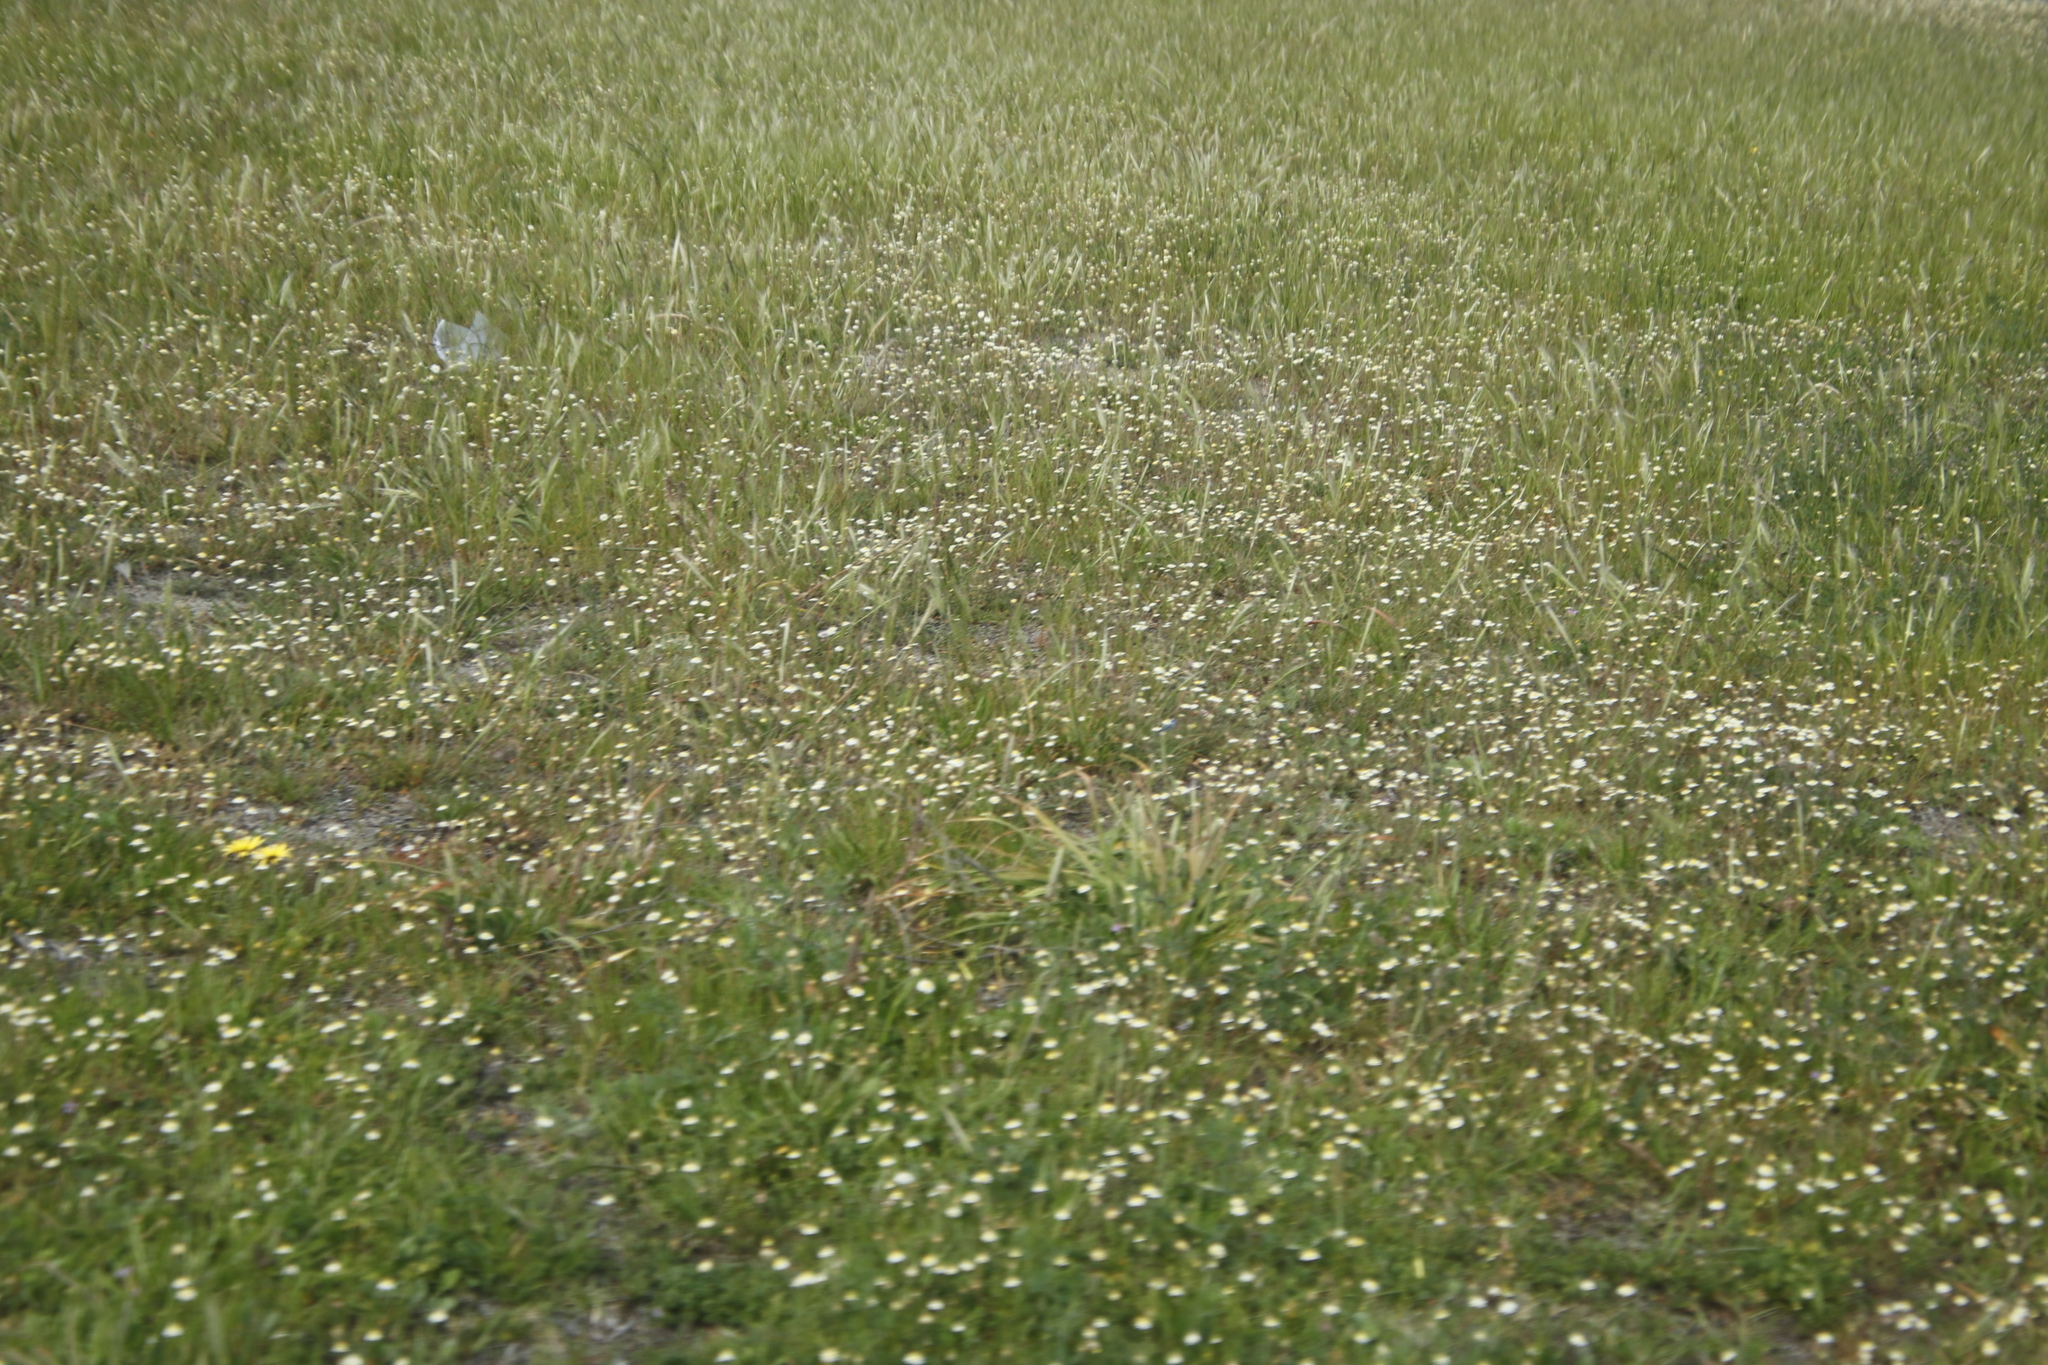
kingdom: Plantae
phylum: Tracheophyta
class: Magnoliopsida
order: Asterales
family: Asteraceae
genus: Cotula
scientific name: Cotula turbinata
